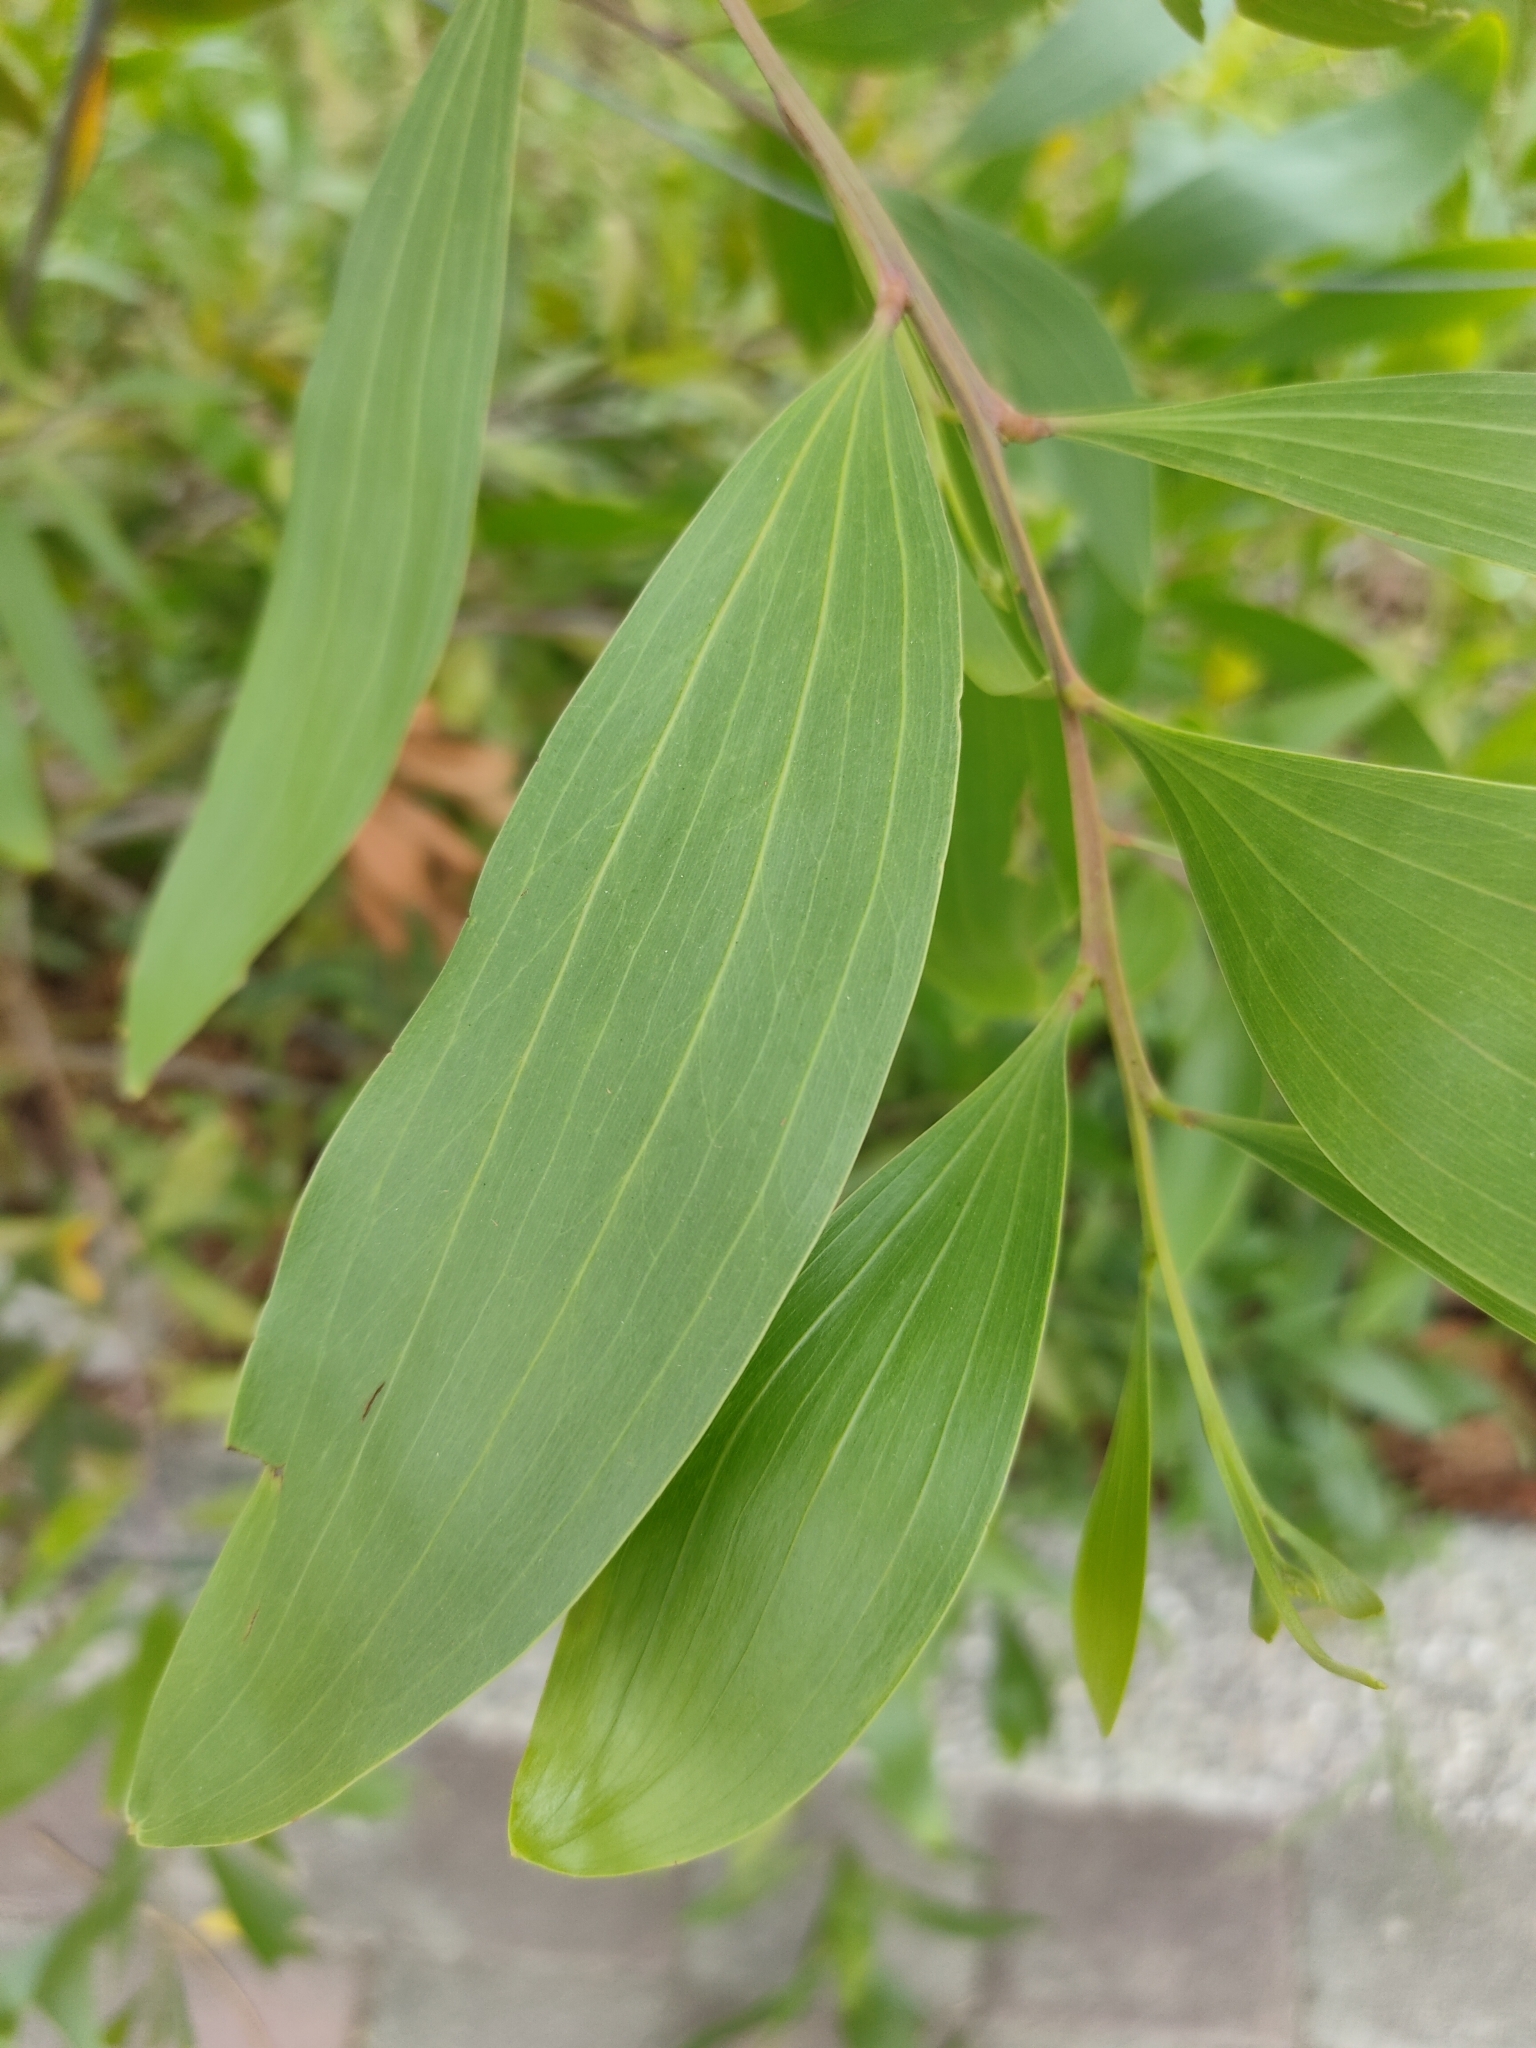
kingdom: Plantae
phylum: Tracheophyta
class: Magnoliopsida
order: Fabales
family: Fabaceae
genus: Acacia
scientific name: Acacia auriculiformis
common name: Earleaf acacia
